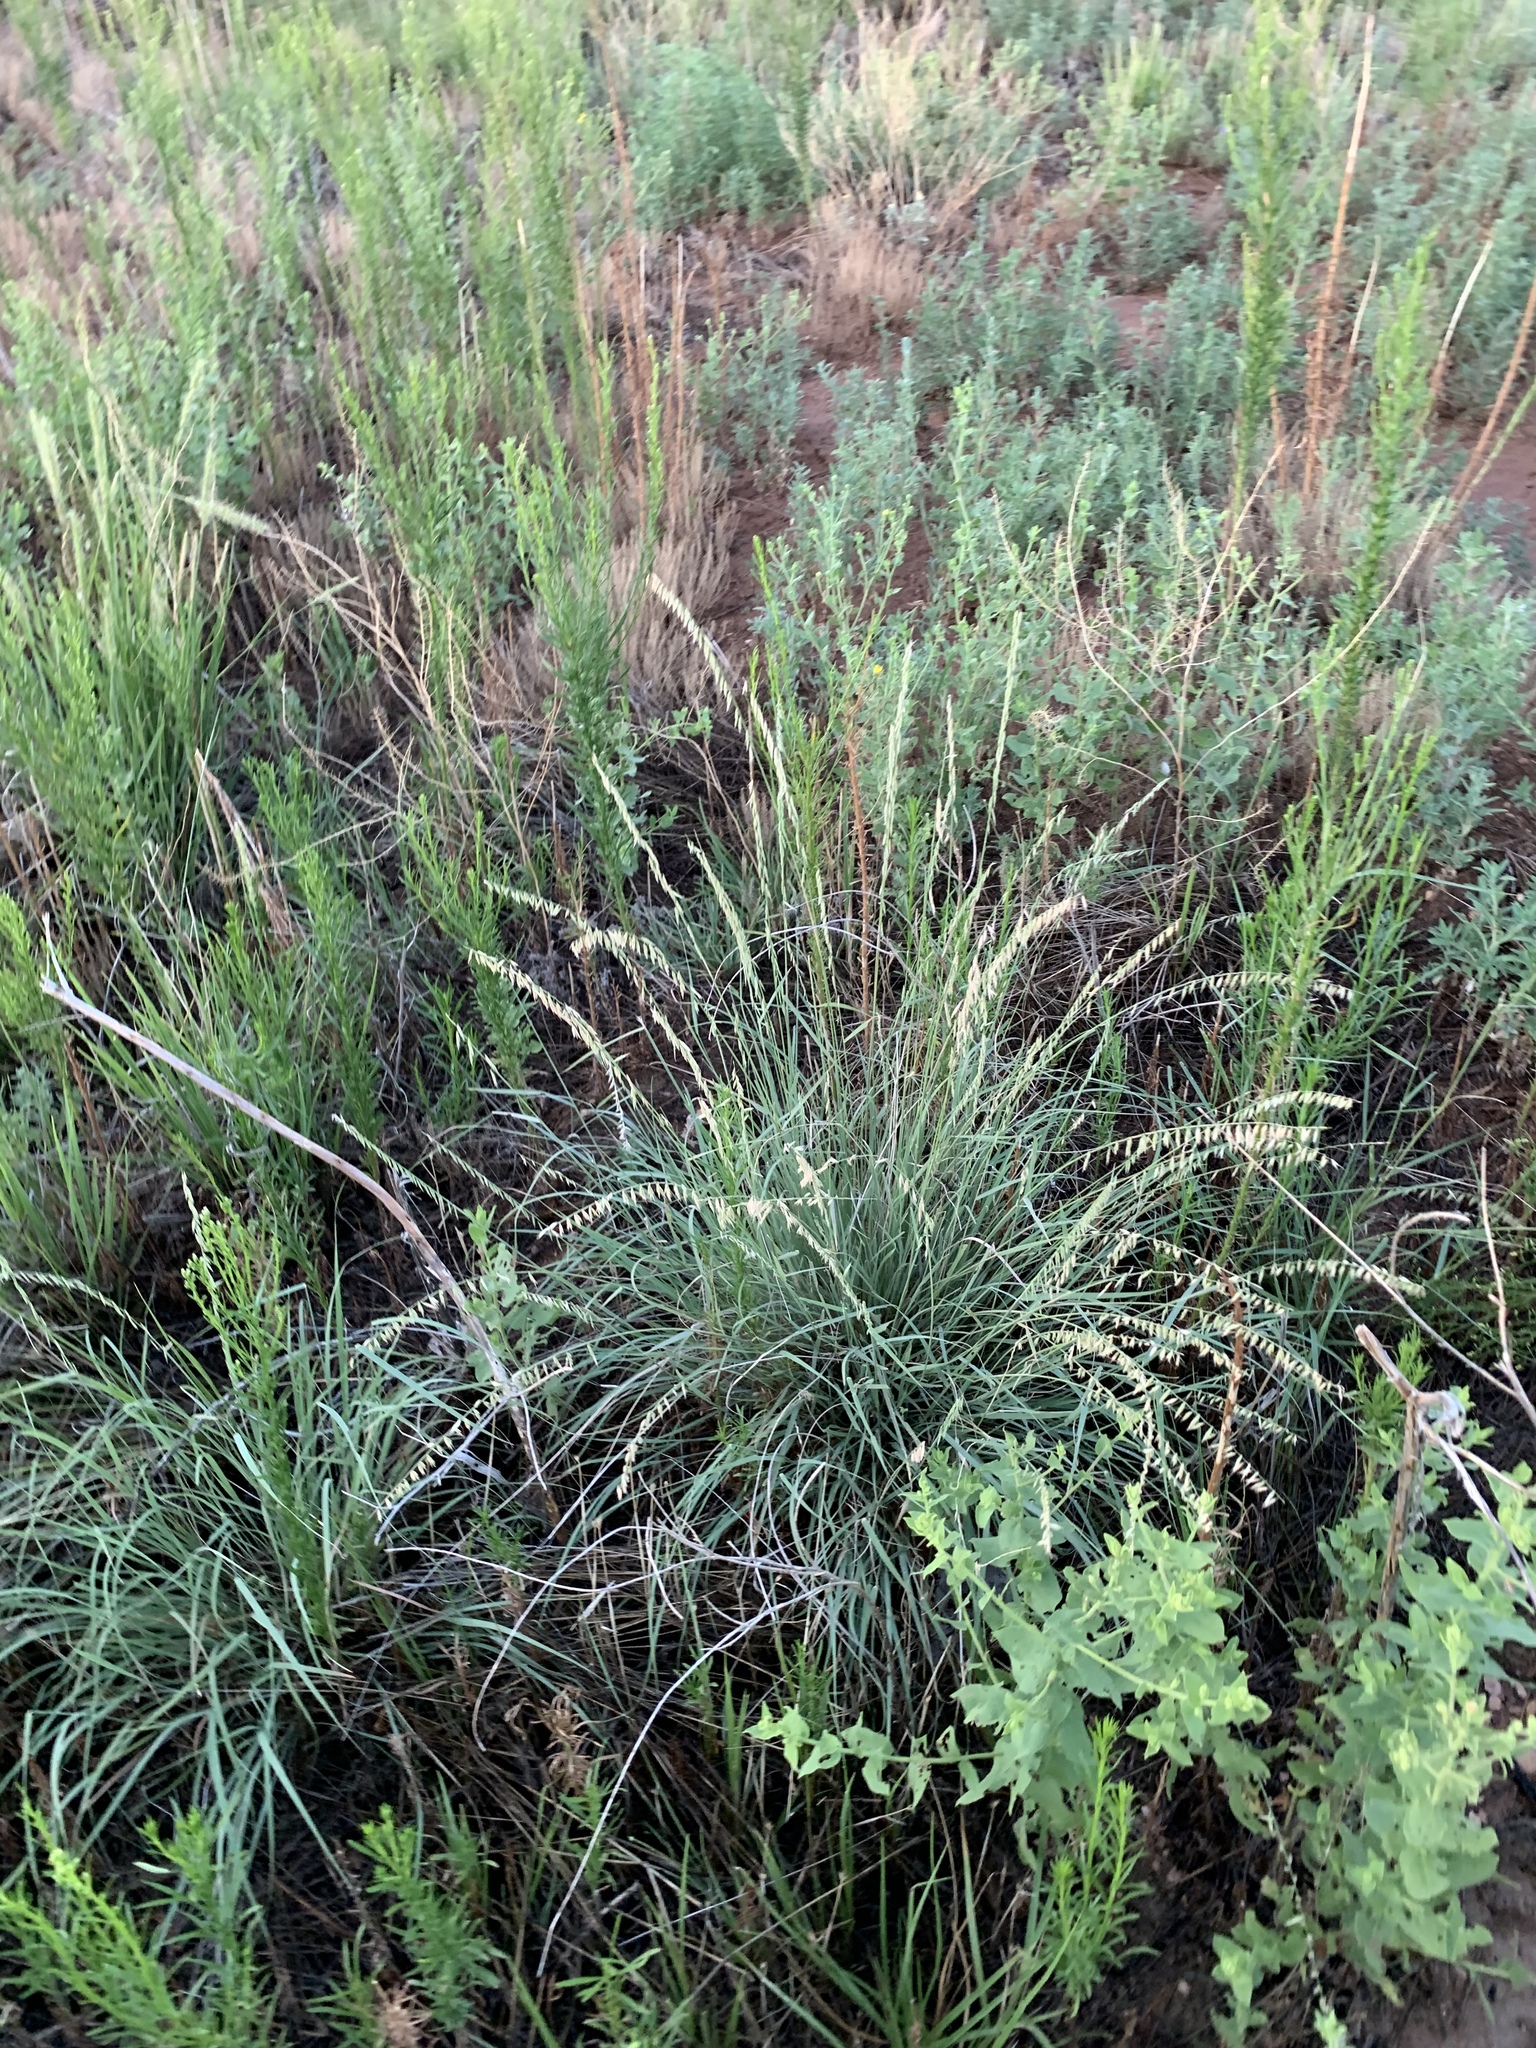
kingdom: Plantae
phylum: Tracheophyta
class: Liliopsida
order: Poales
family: Poaceae
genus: Bouteloua
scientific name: Bouteloua curtipendula
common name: Side-oats grama
